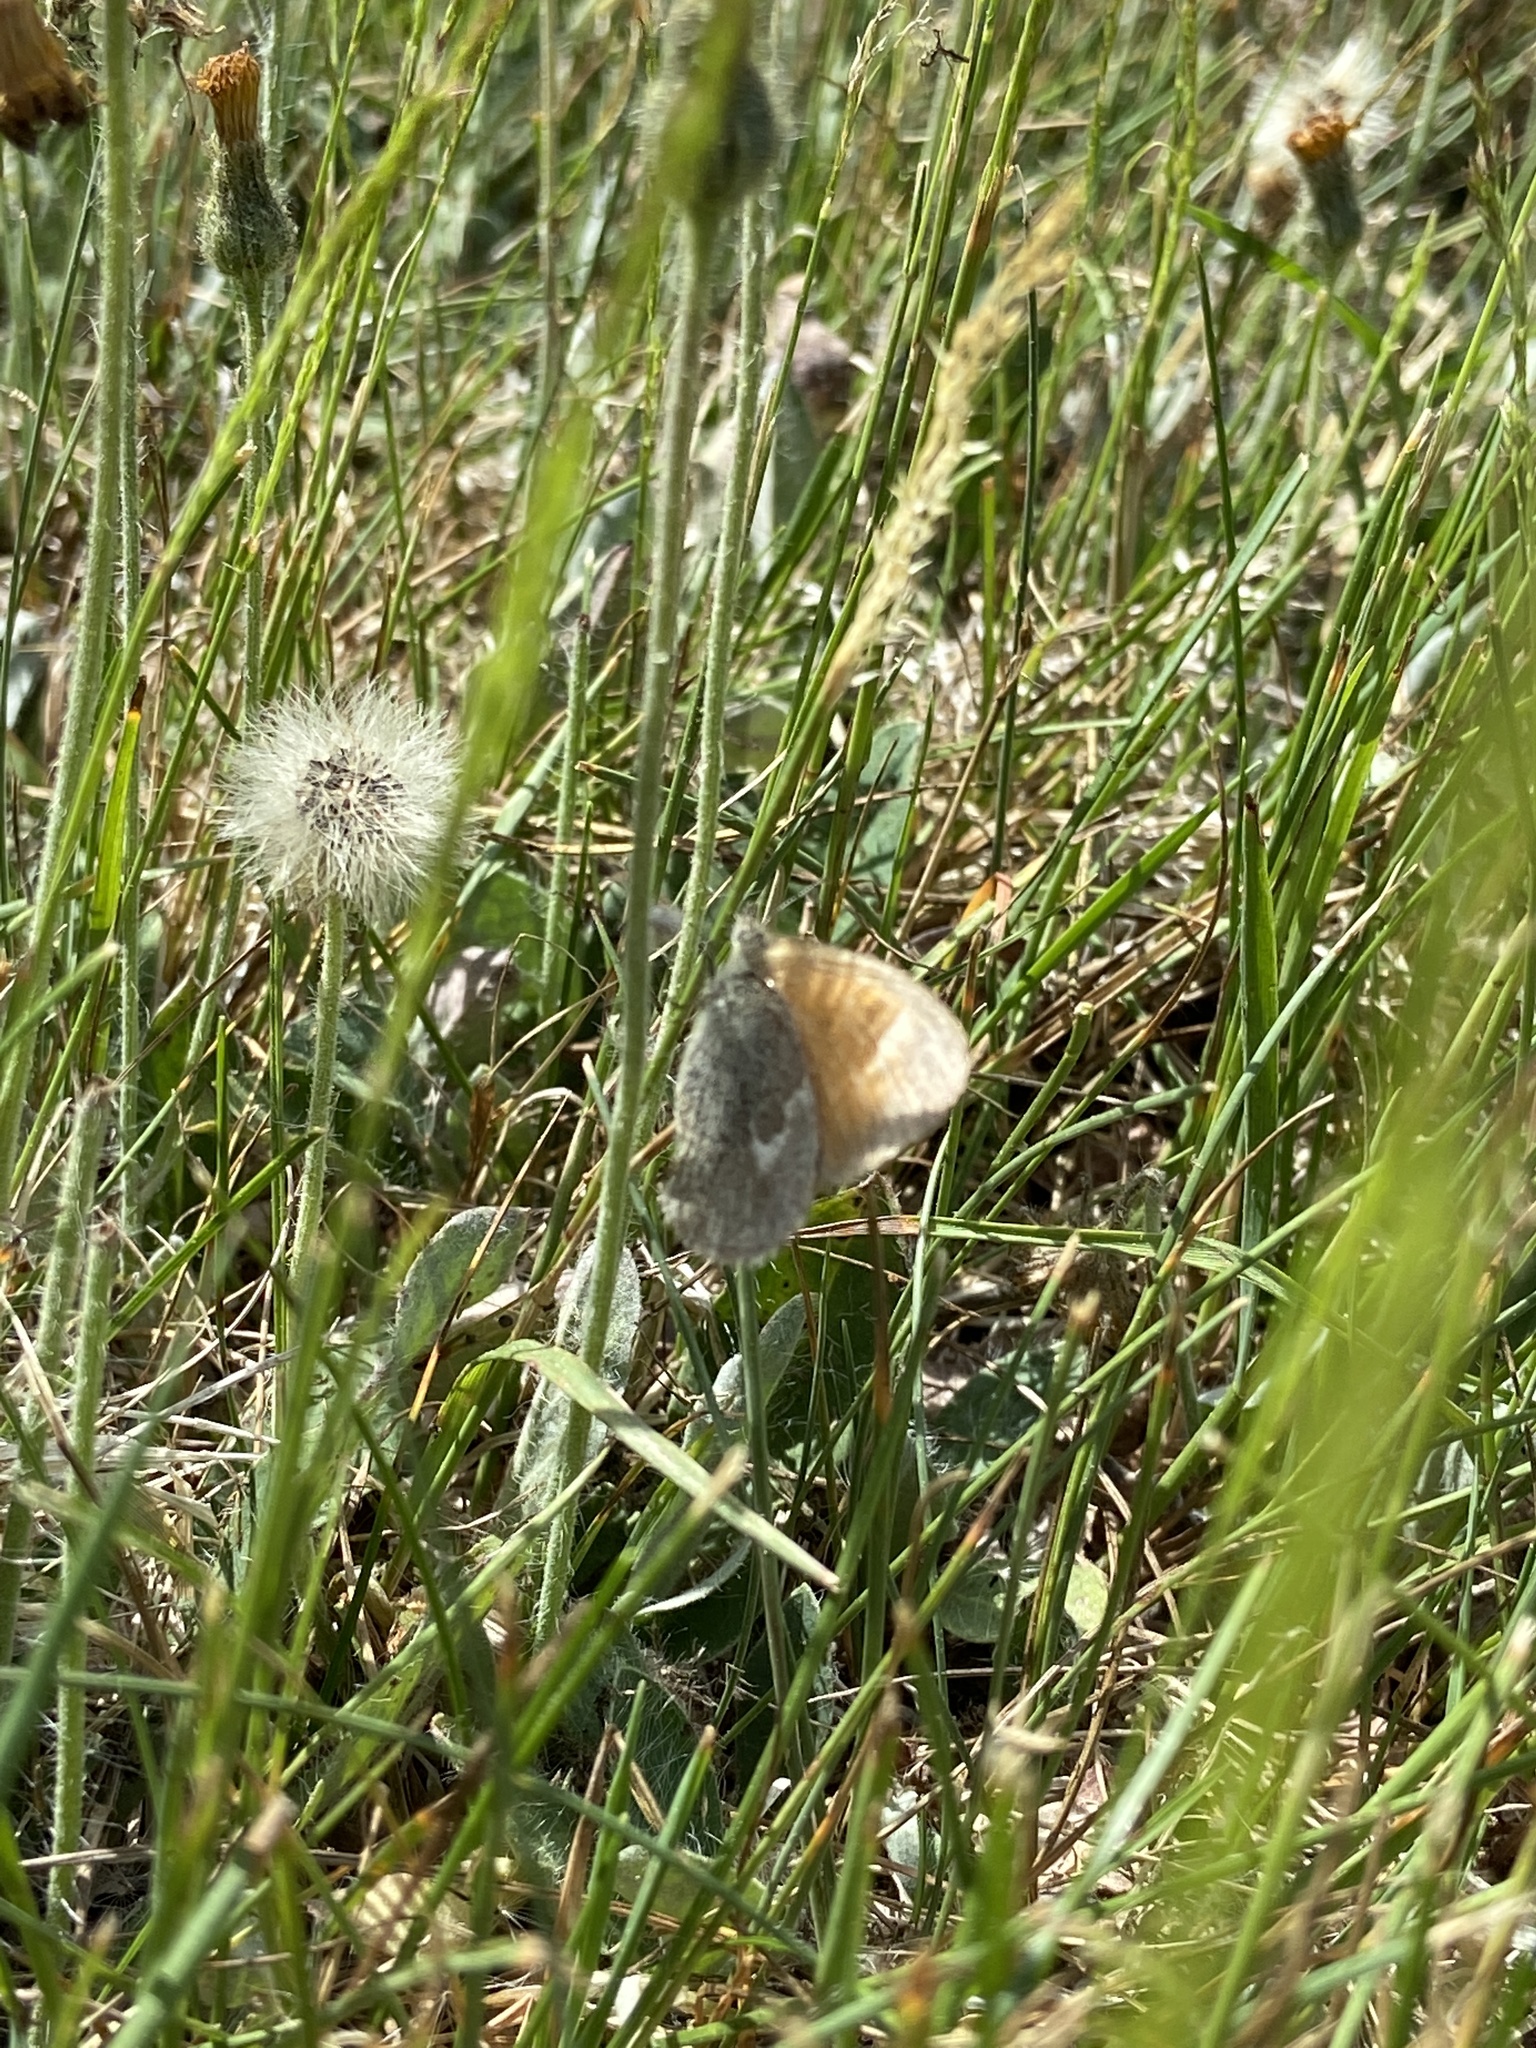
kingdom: Animalia
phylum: Arthropoda
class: Insecta
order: Lepidoptera
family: Nymphalidae
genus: Coenonympha
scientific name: Coenonympha california
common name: Common ringlet
